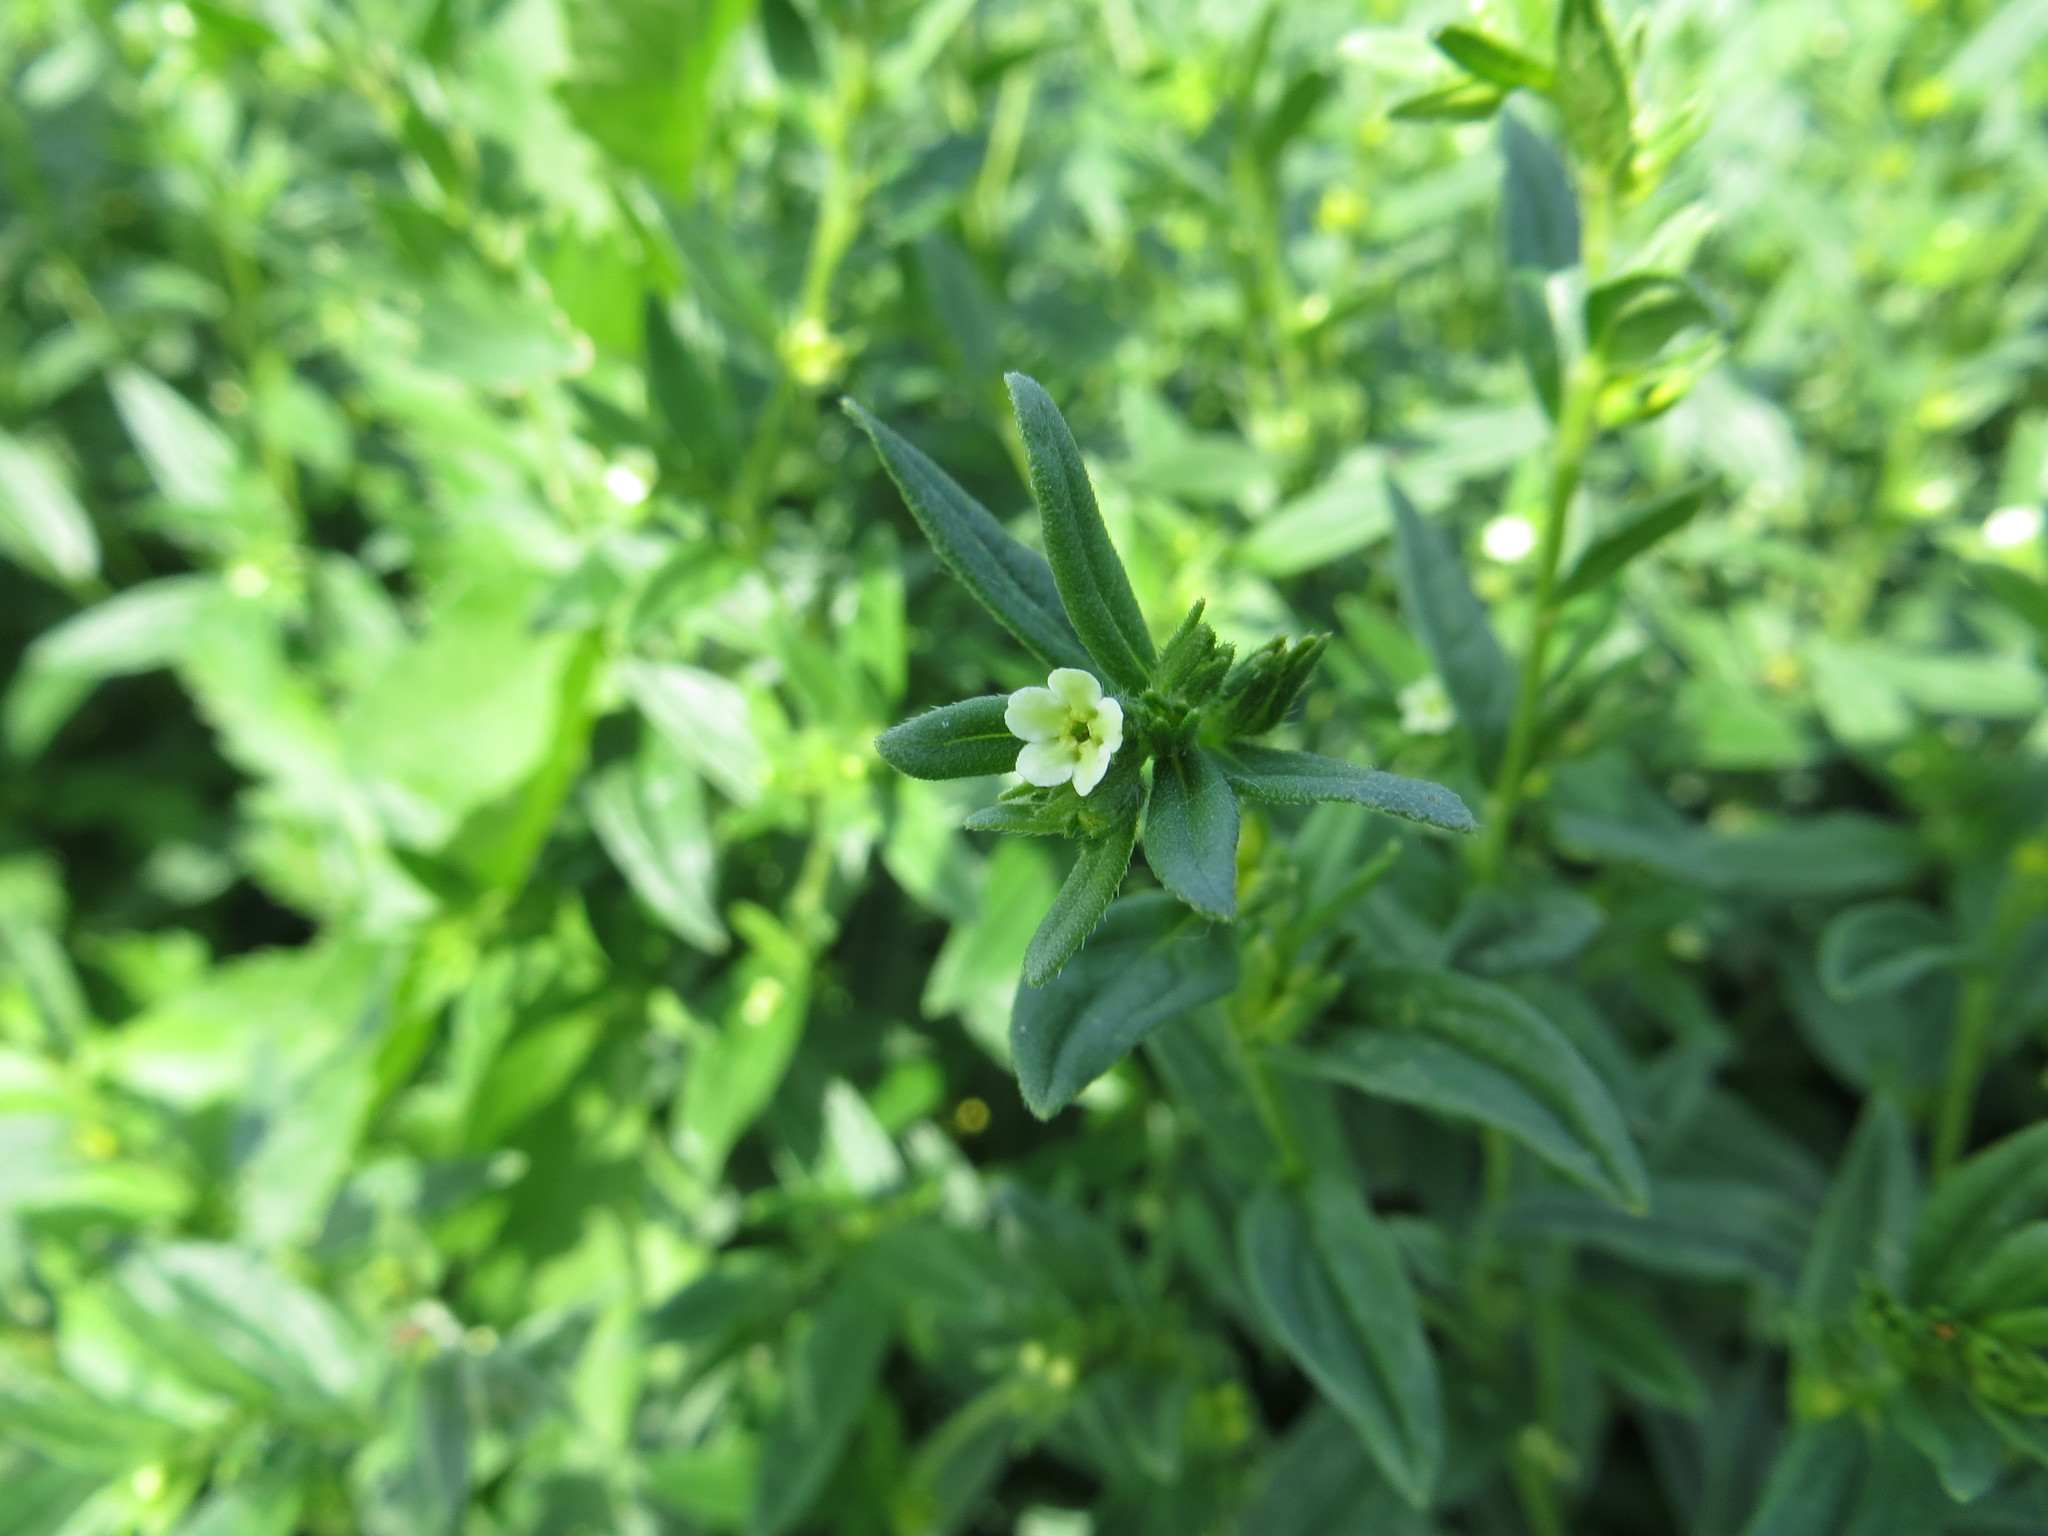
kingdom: Plantae
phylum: Tracheophyta
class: Magnoliopsida
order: Boraginales
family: Boraginaceae
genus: Buglossoides
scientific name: Buglossoides arvensis
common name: Corn gromwell
